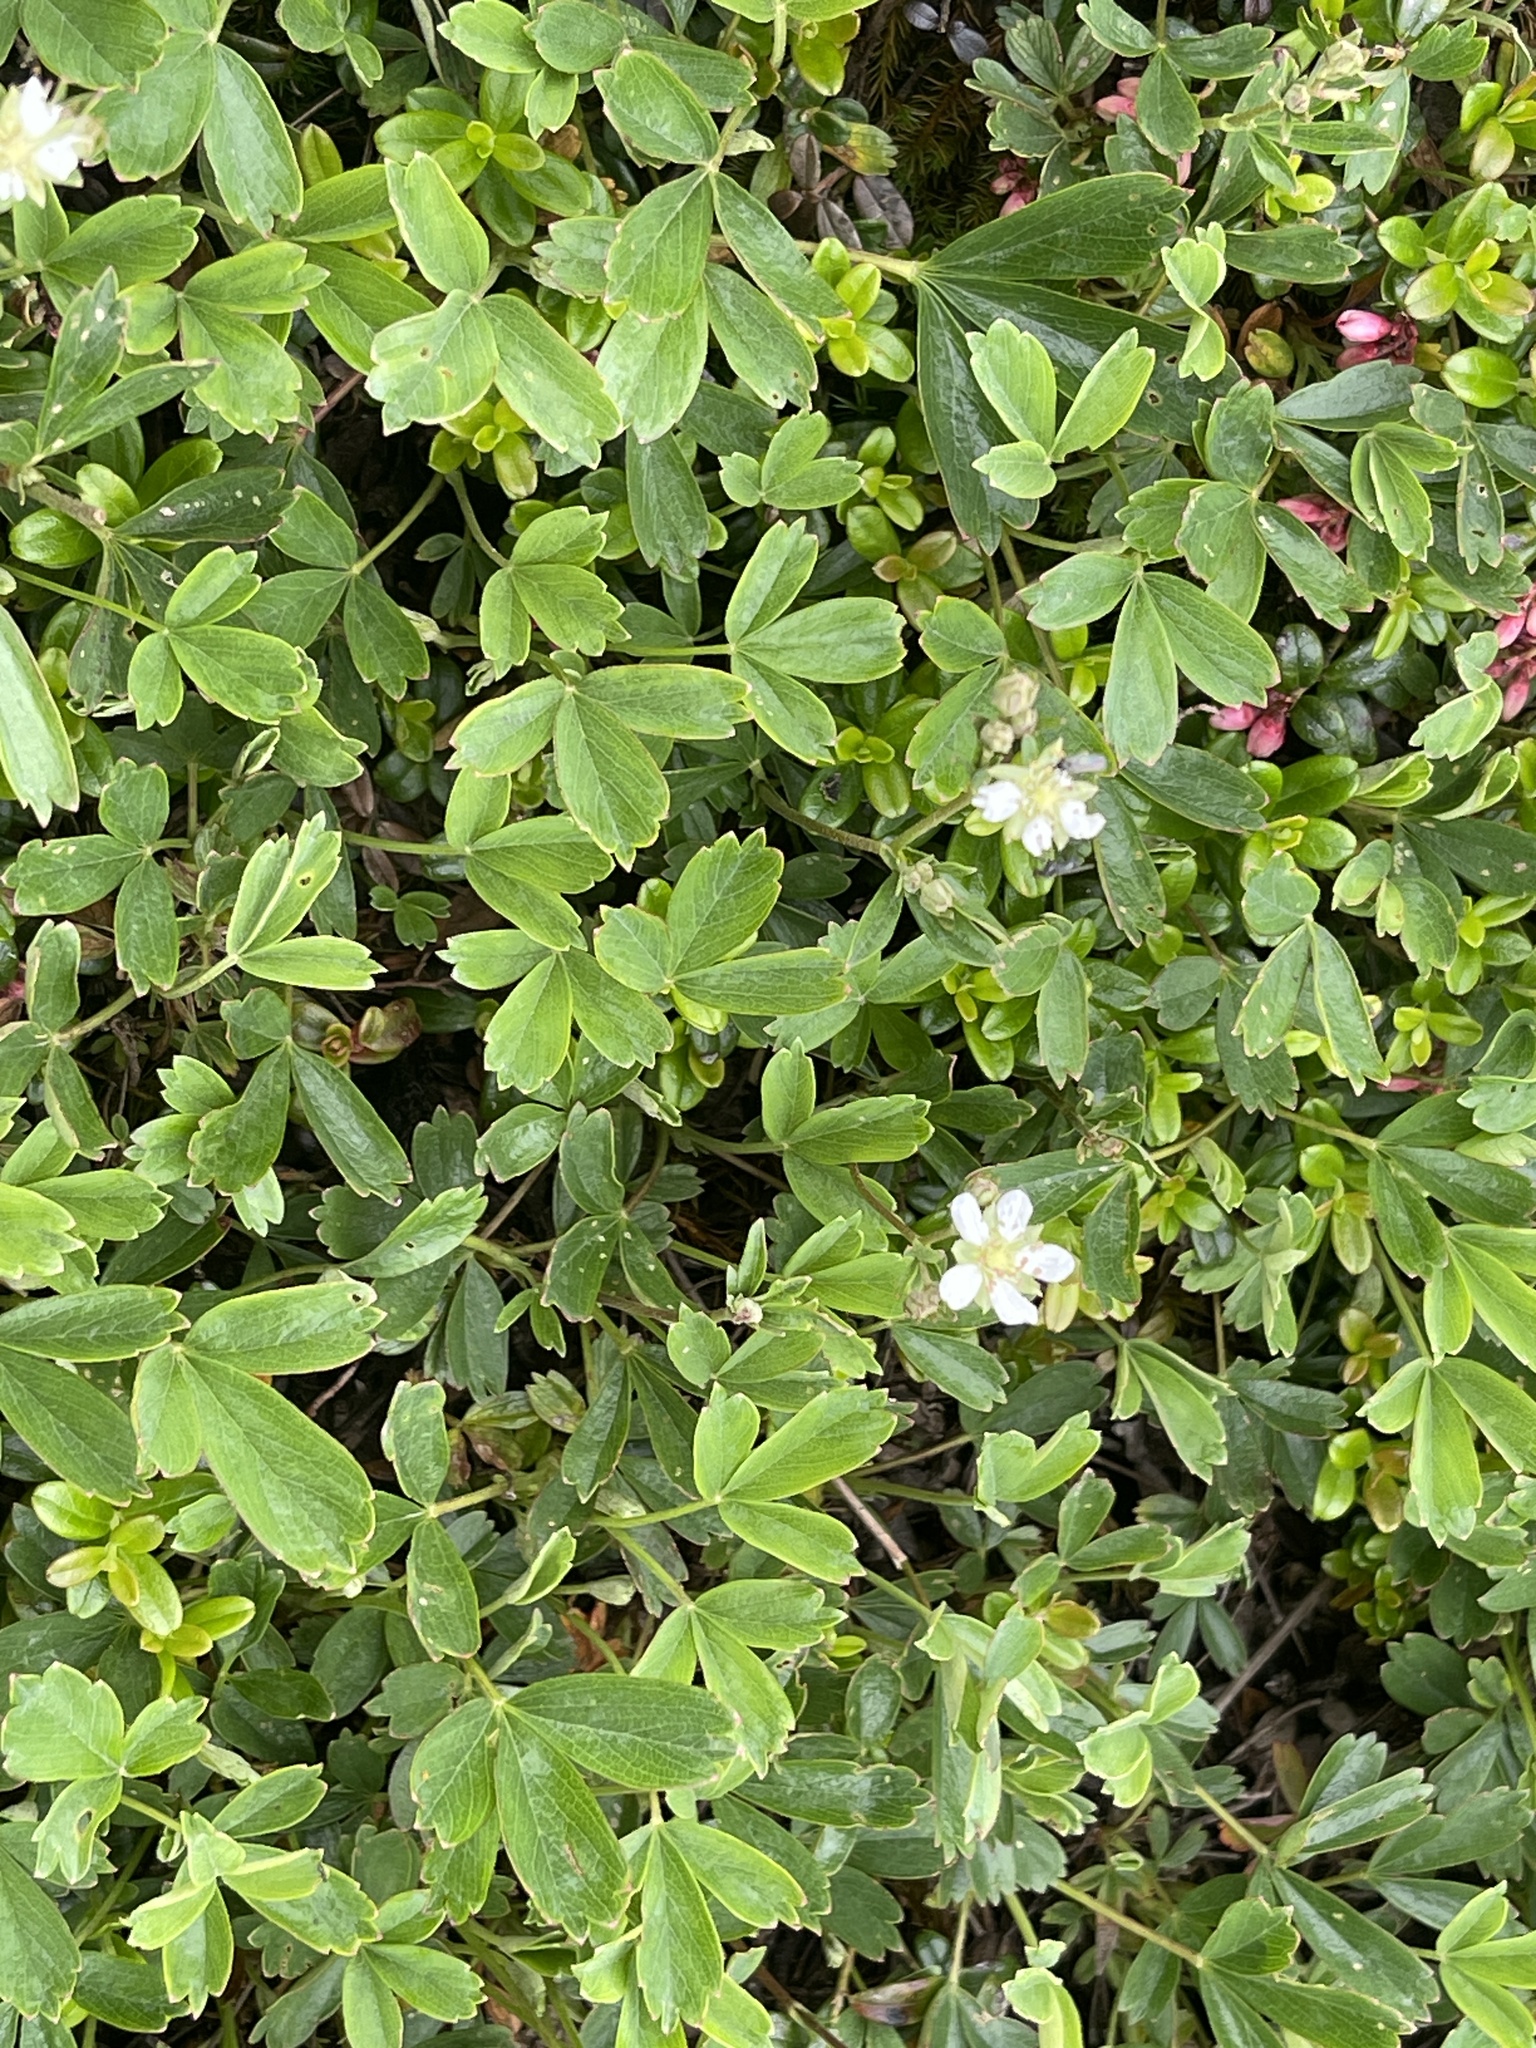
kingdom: Plantae
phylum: Tracheophyta
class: Magnoliopsida
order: Rosales
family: Rosaceae
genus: Sibbaldia
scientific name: Sibbaldia tridentata
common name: Three-toothed cinquefoil
